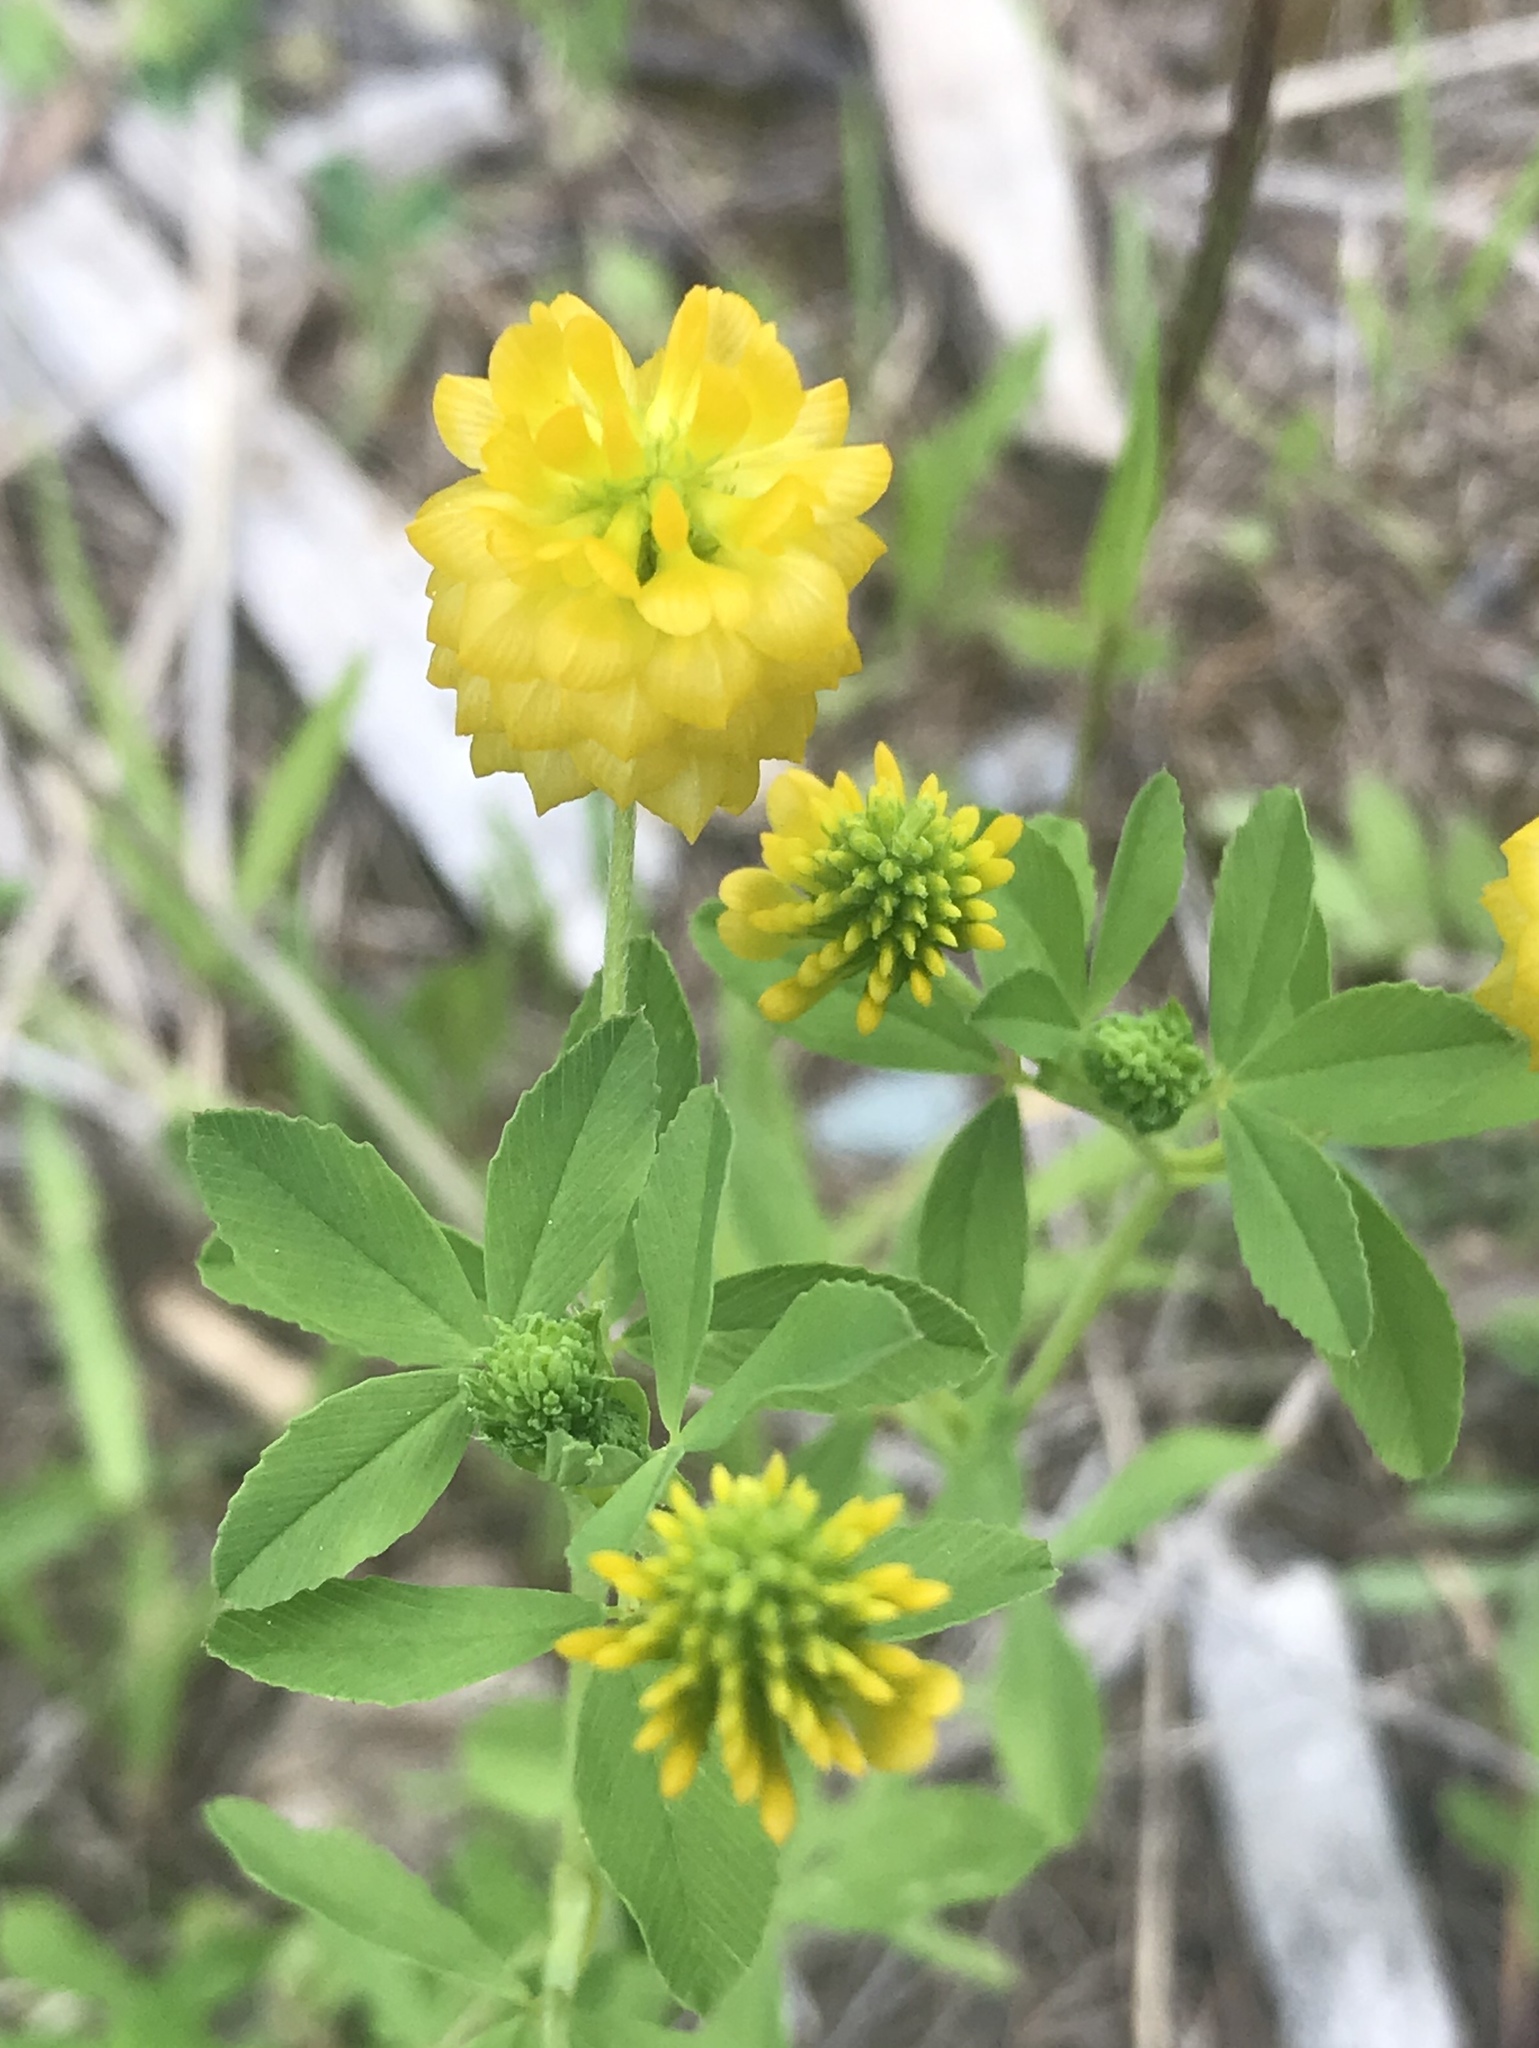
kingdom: Plantae
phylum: Tracheophyta
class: Magnoliopsida
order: Fabales
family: Fabaceae
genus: Trifolium
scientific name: Trifolium aureum
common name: Golden clover
